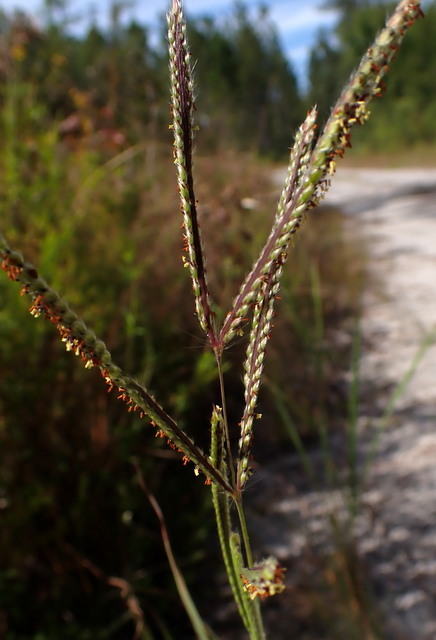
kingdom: Plantae
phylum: Tracheophyta
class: Liliopsida
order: Poales
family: Poaceae
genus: Paspalum
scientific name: Paspalum urvillei
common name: Vasey's grass
